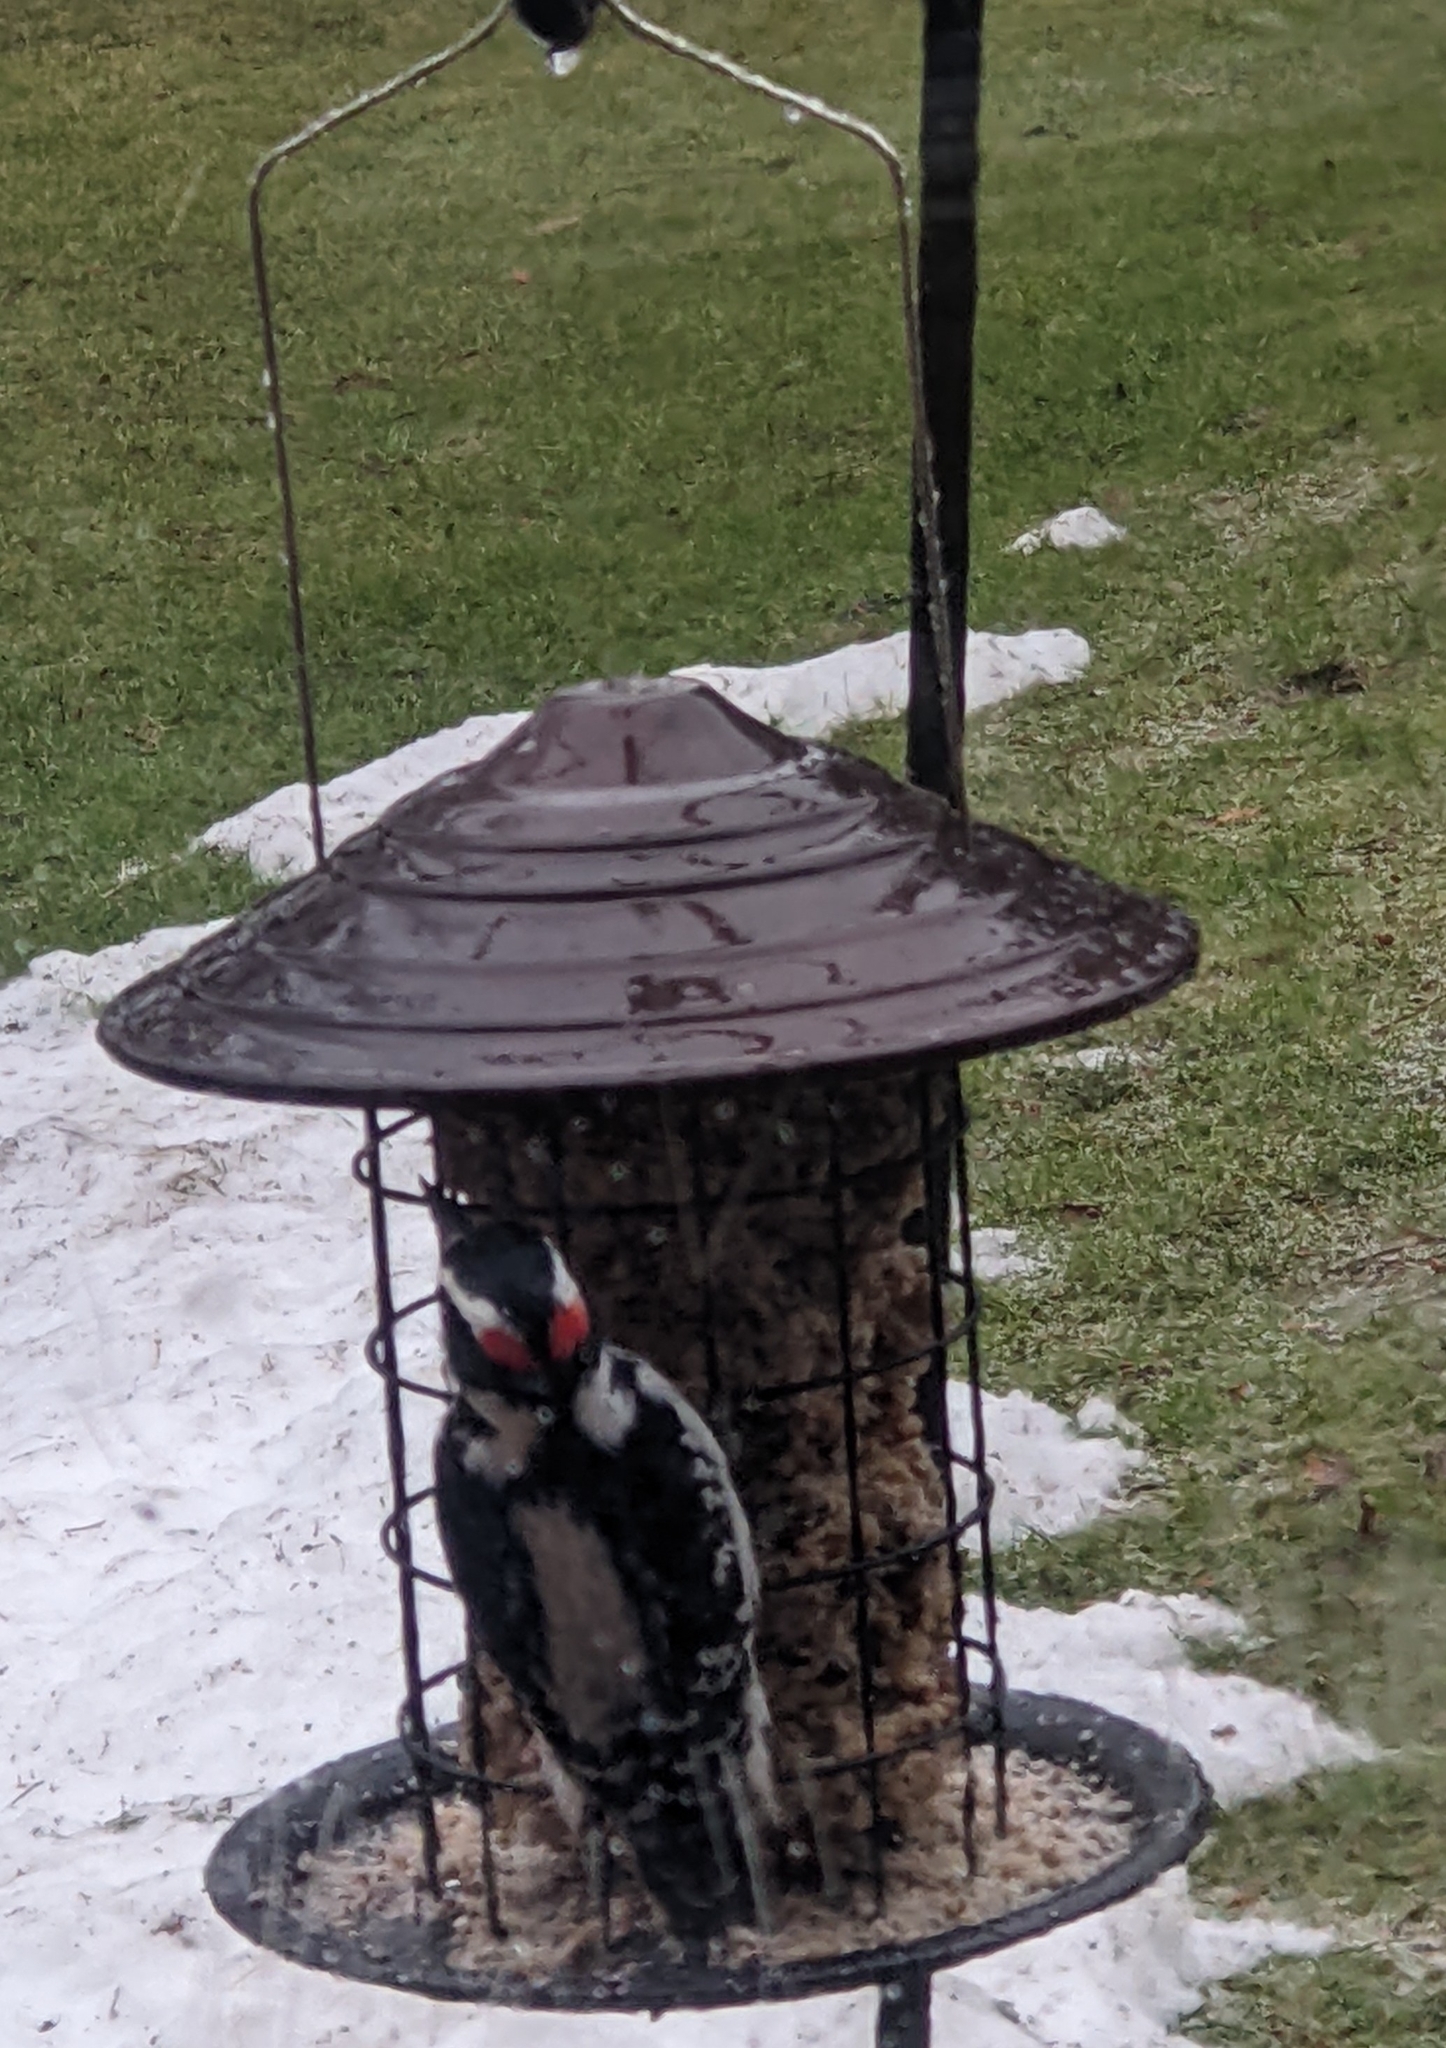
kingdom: Animalia
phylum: Chordata
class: Aves
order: Piciformes
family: Picidae
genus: Leuconotopicus
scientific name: Leuconotopicus villosus
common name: Hairy woodpecker
